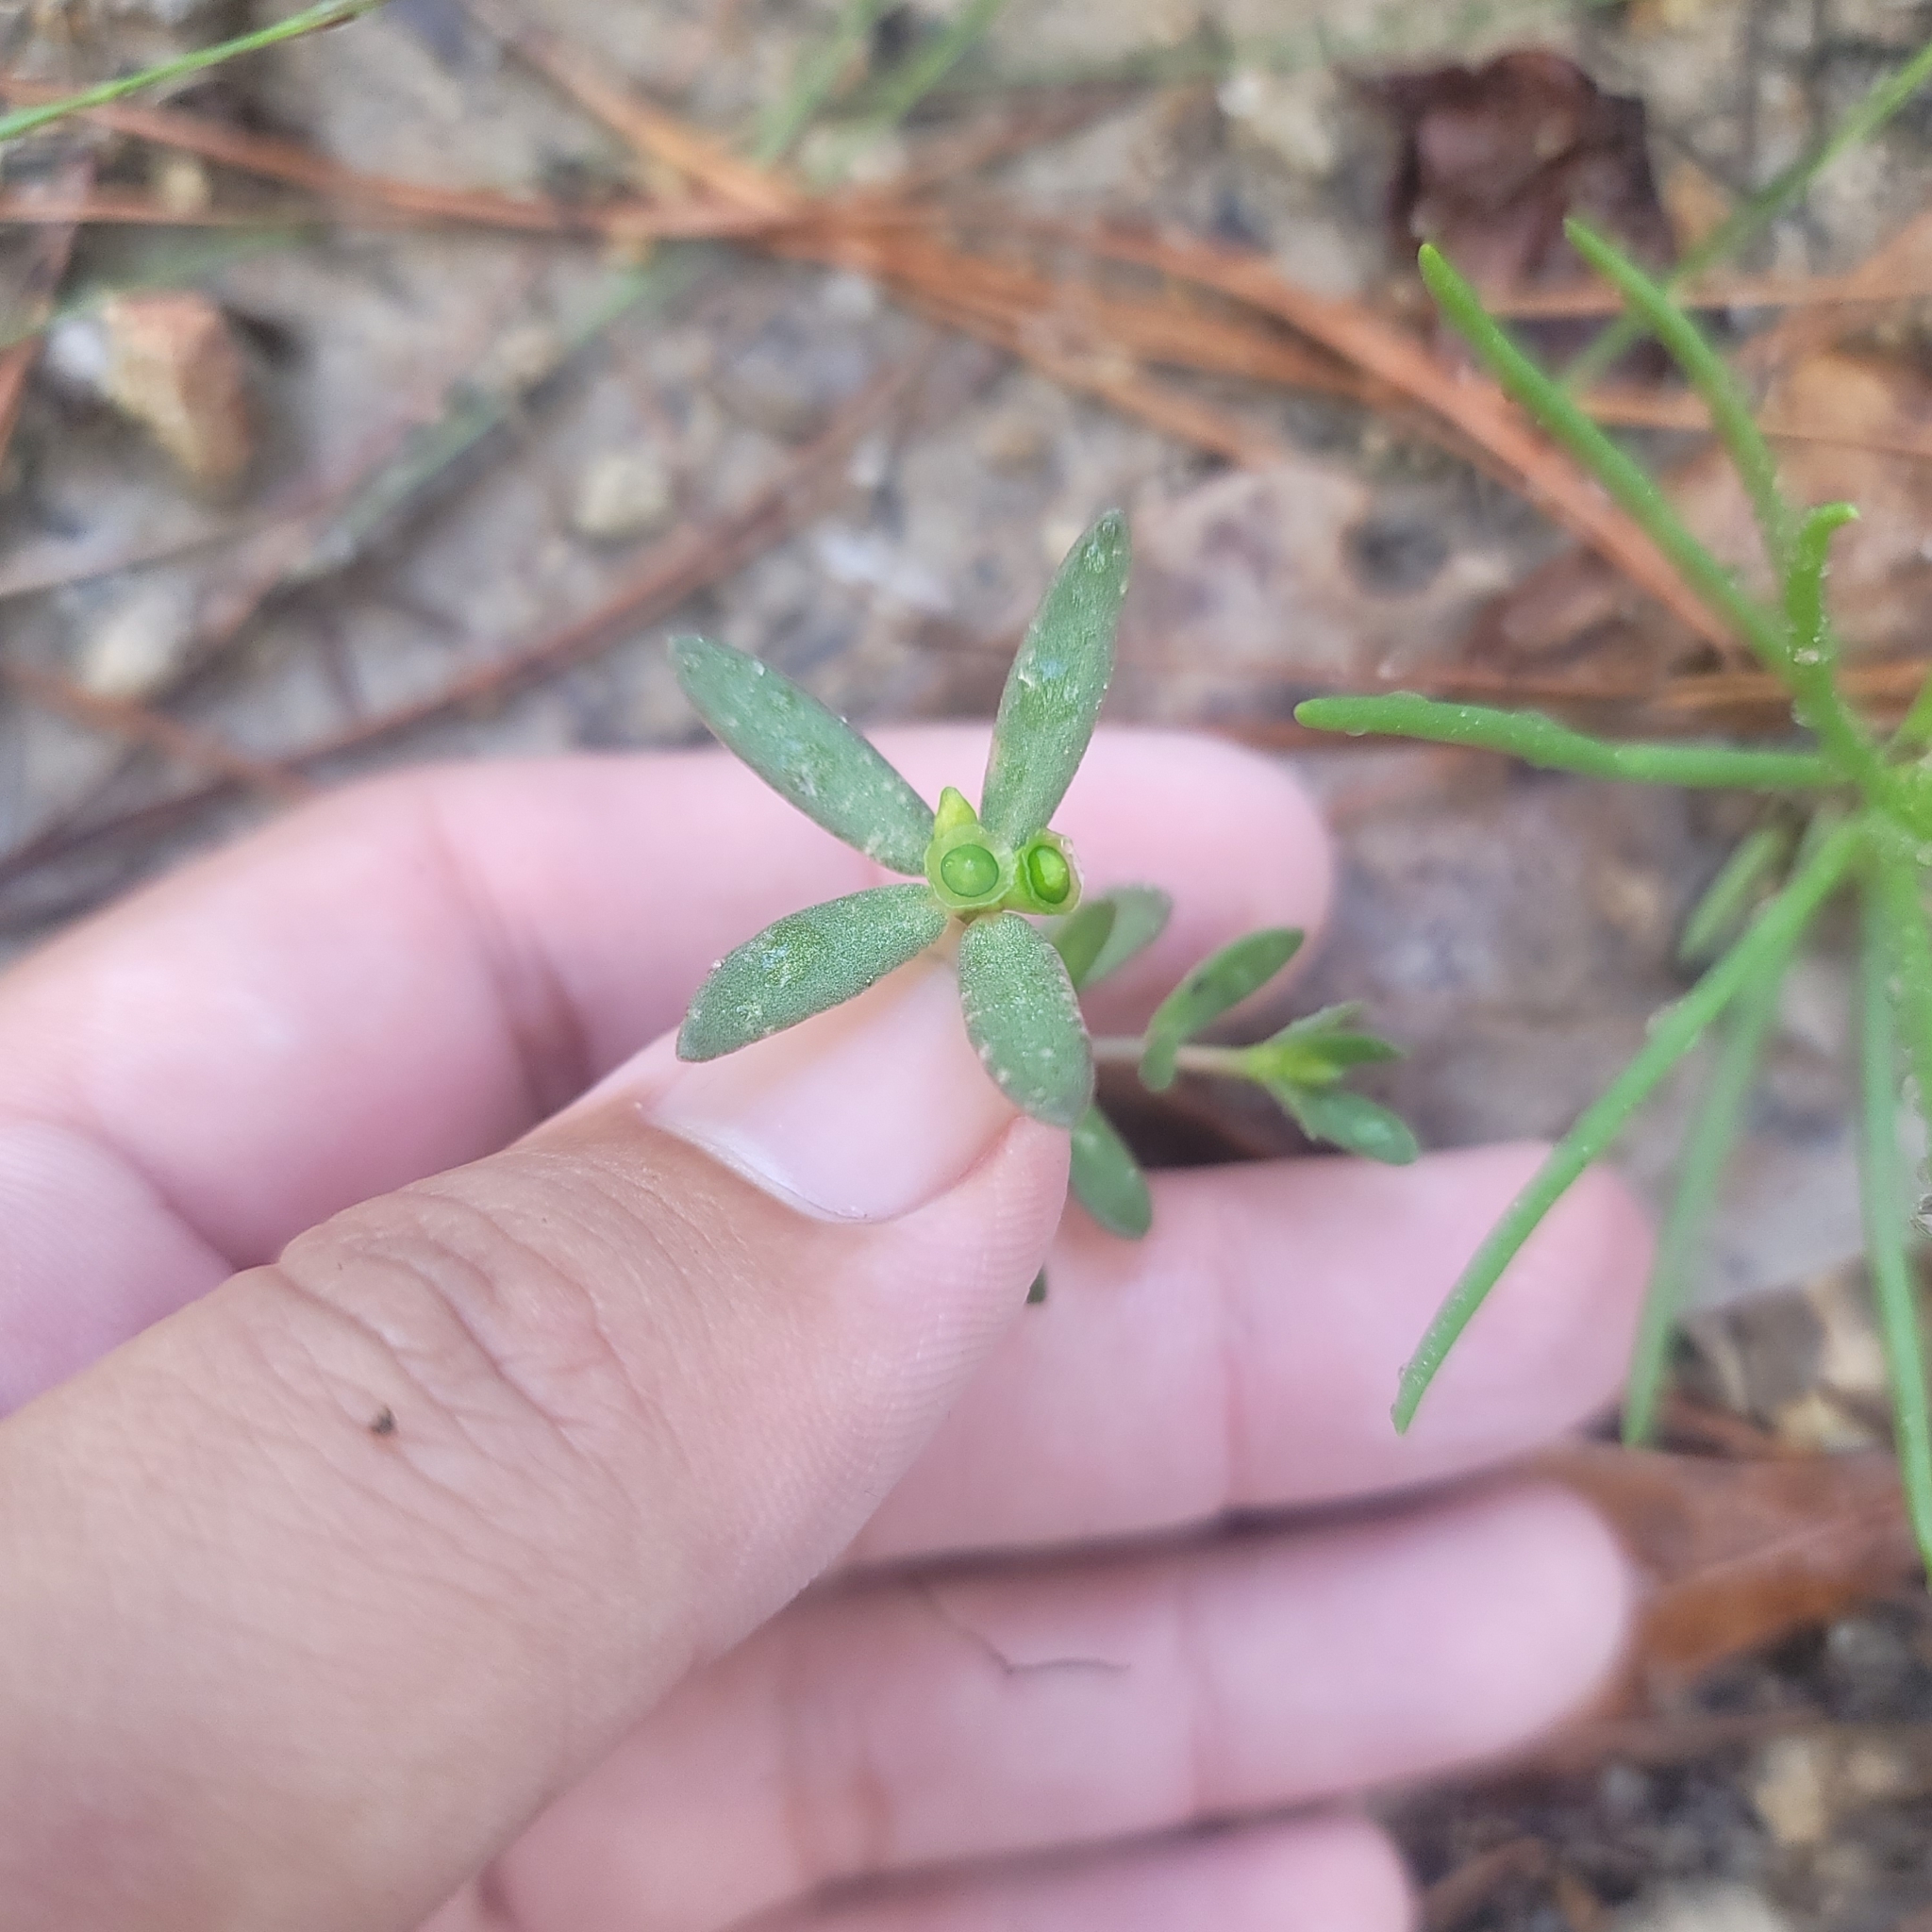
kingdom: Plantae
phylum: Tracheophyta
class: Magnoliopsida
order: Caryophyllales
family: Portulacaceae
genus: Portulaca
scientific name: Portulaca umbraticola
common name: Wingpod purslane
